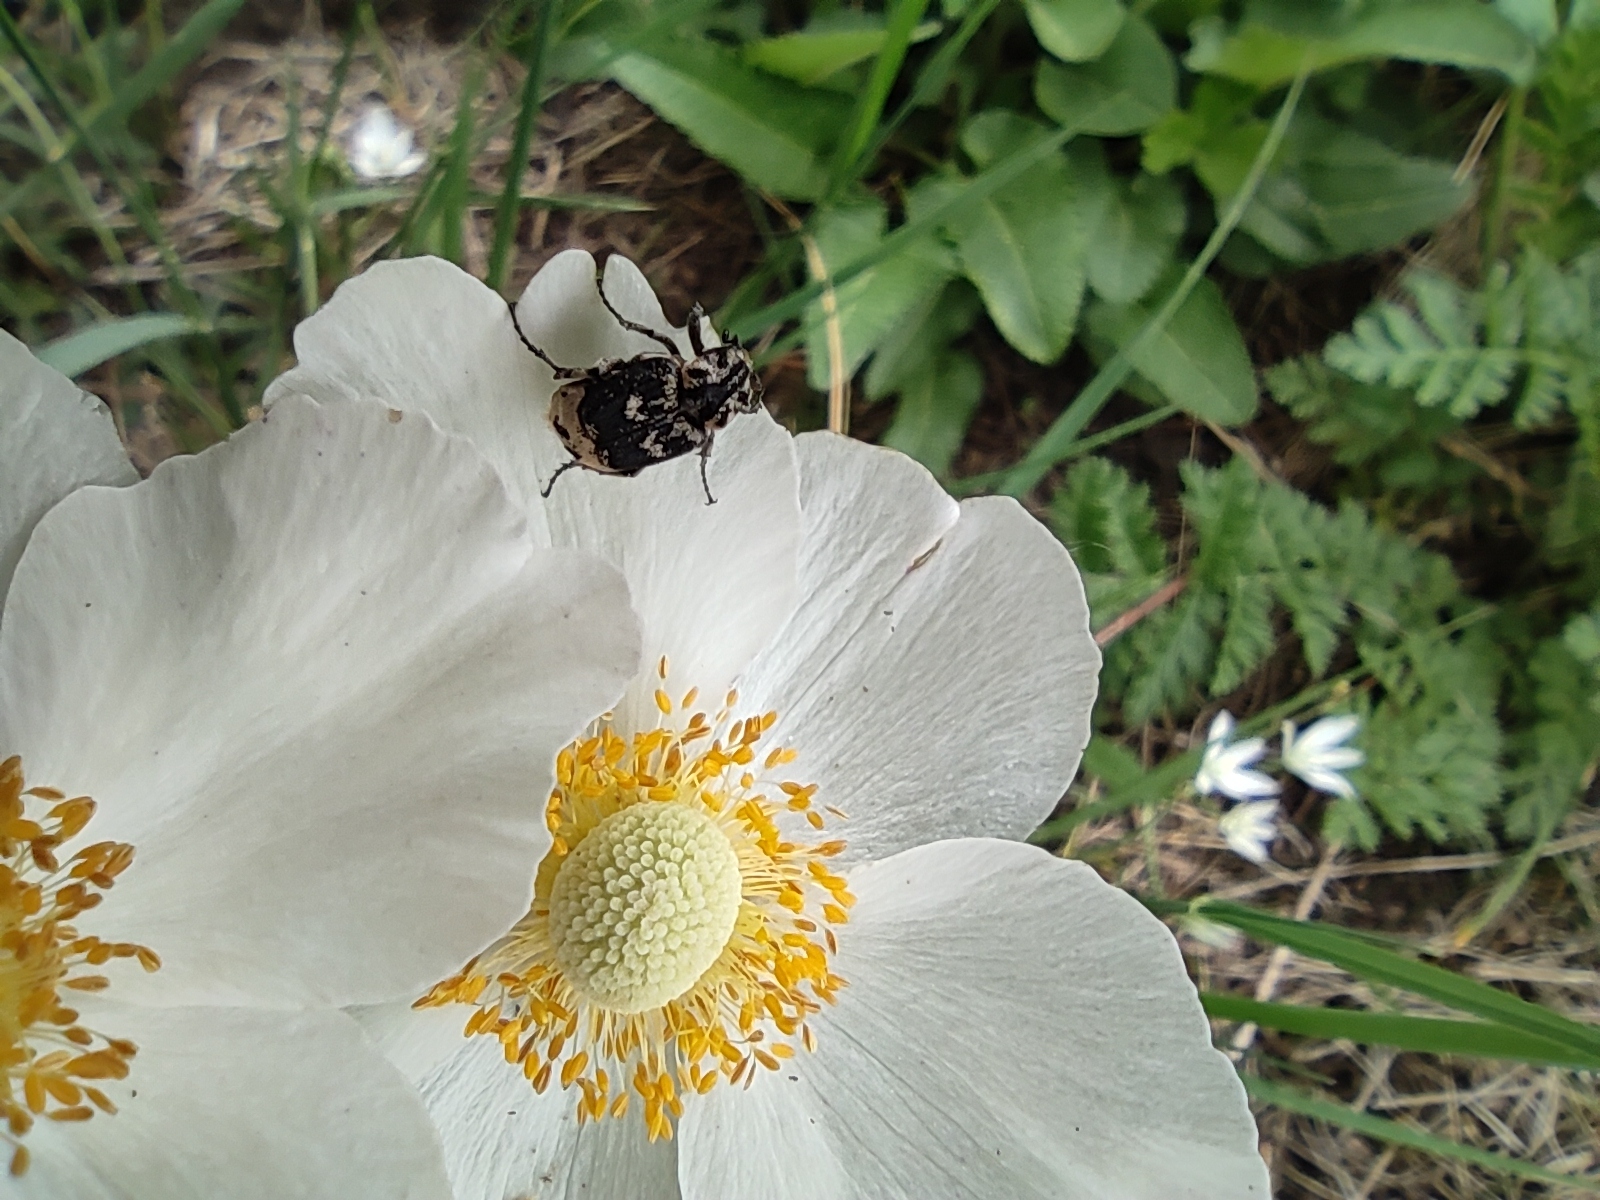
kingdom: Animalia
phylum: Arthropoda
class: Insecta
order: Coleoptera
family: Scarabaeidae
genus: Valgus
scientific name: Valgus hemipterus
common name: Bug flower chafer
